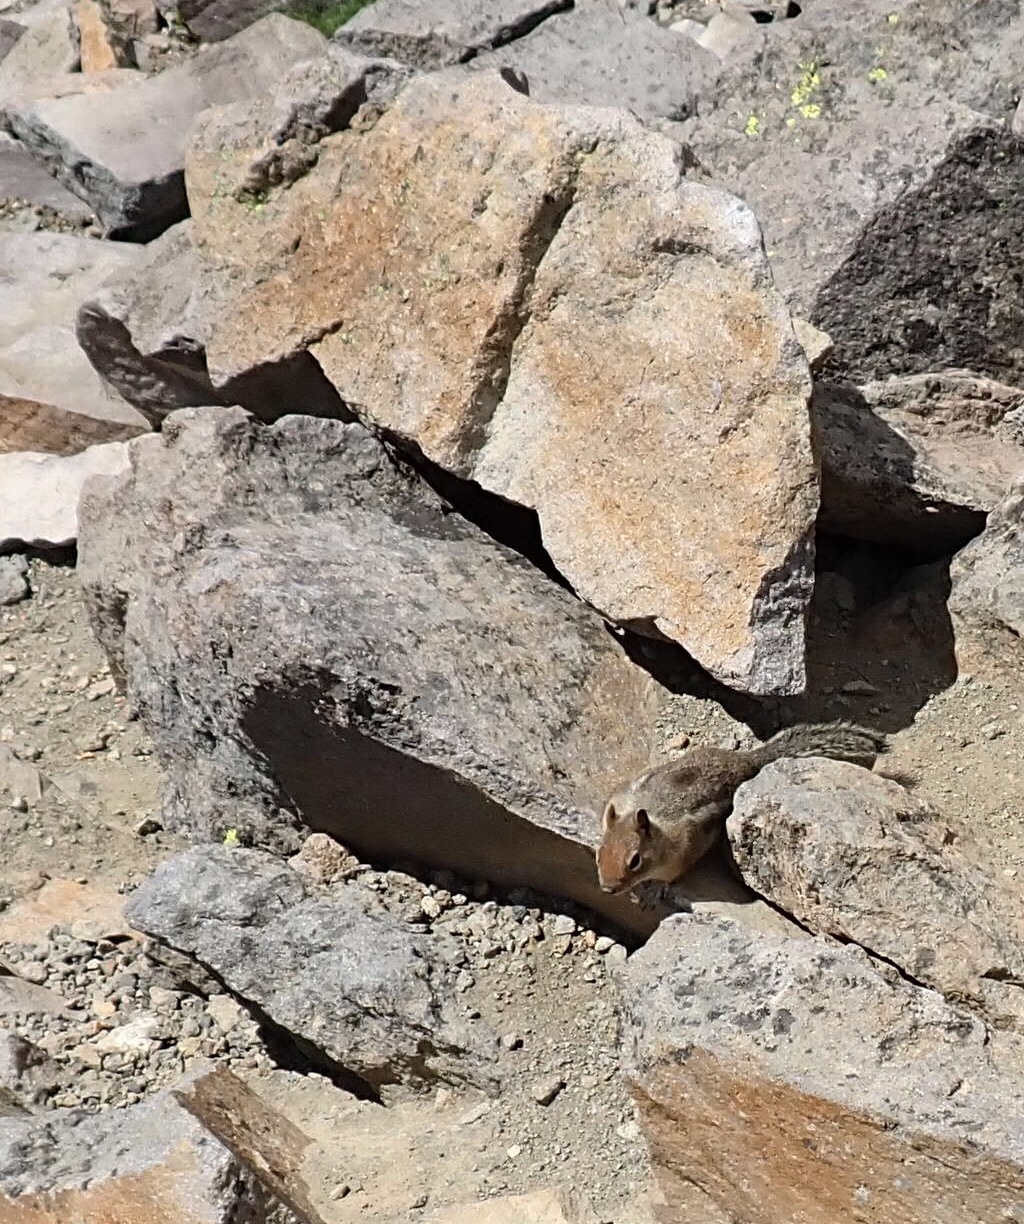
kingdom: Animalia
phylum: Chordata
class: Mammalia
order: Rodentia
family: Sciuridae
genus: Callospermophilus
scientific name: Callospermophilus saturatus
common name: Cascade golden-mantled ground squirrel
